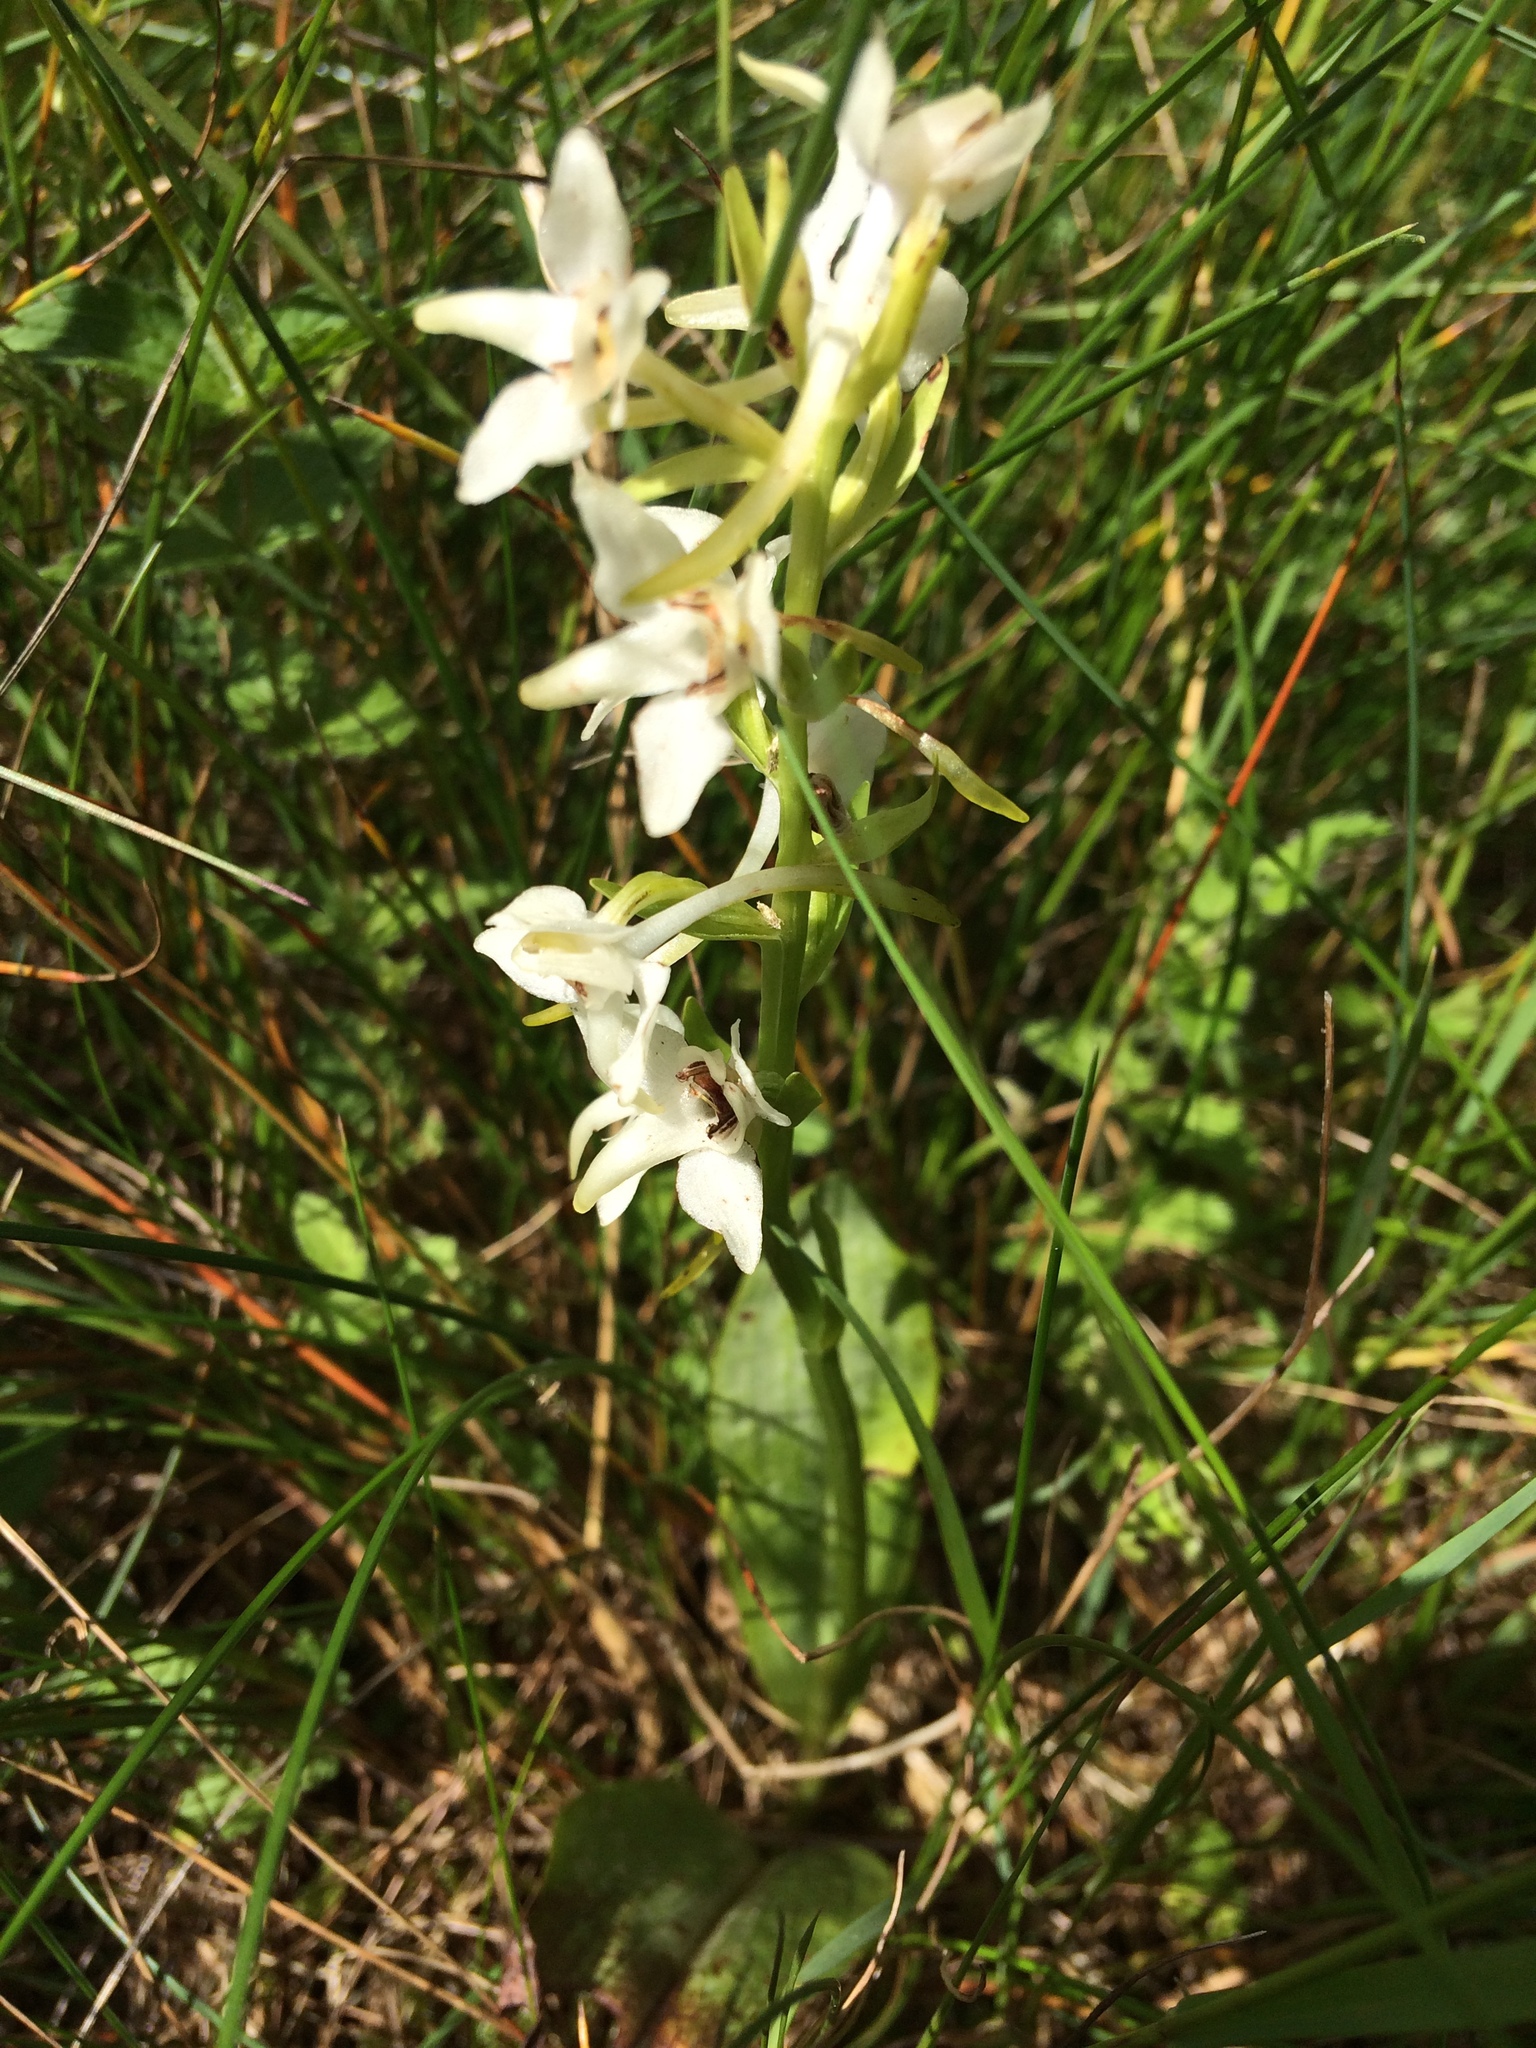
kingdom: Plantae
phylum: Tracheophyta
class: Liliopsida
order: Asparagales
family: Orchidaceae
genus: Platanthera
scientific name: Platanthera chlorantha
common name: Greater butterfly-orchid
